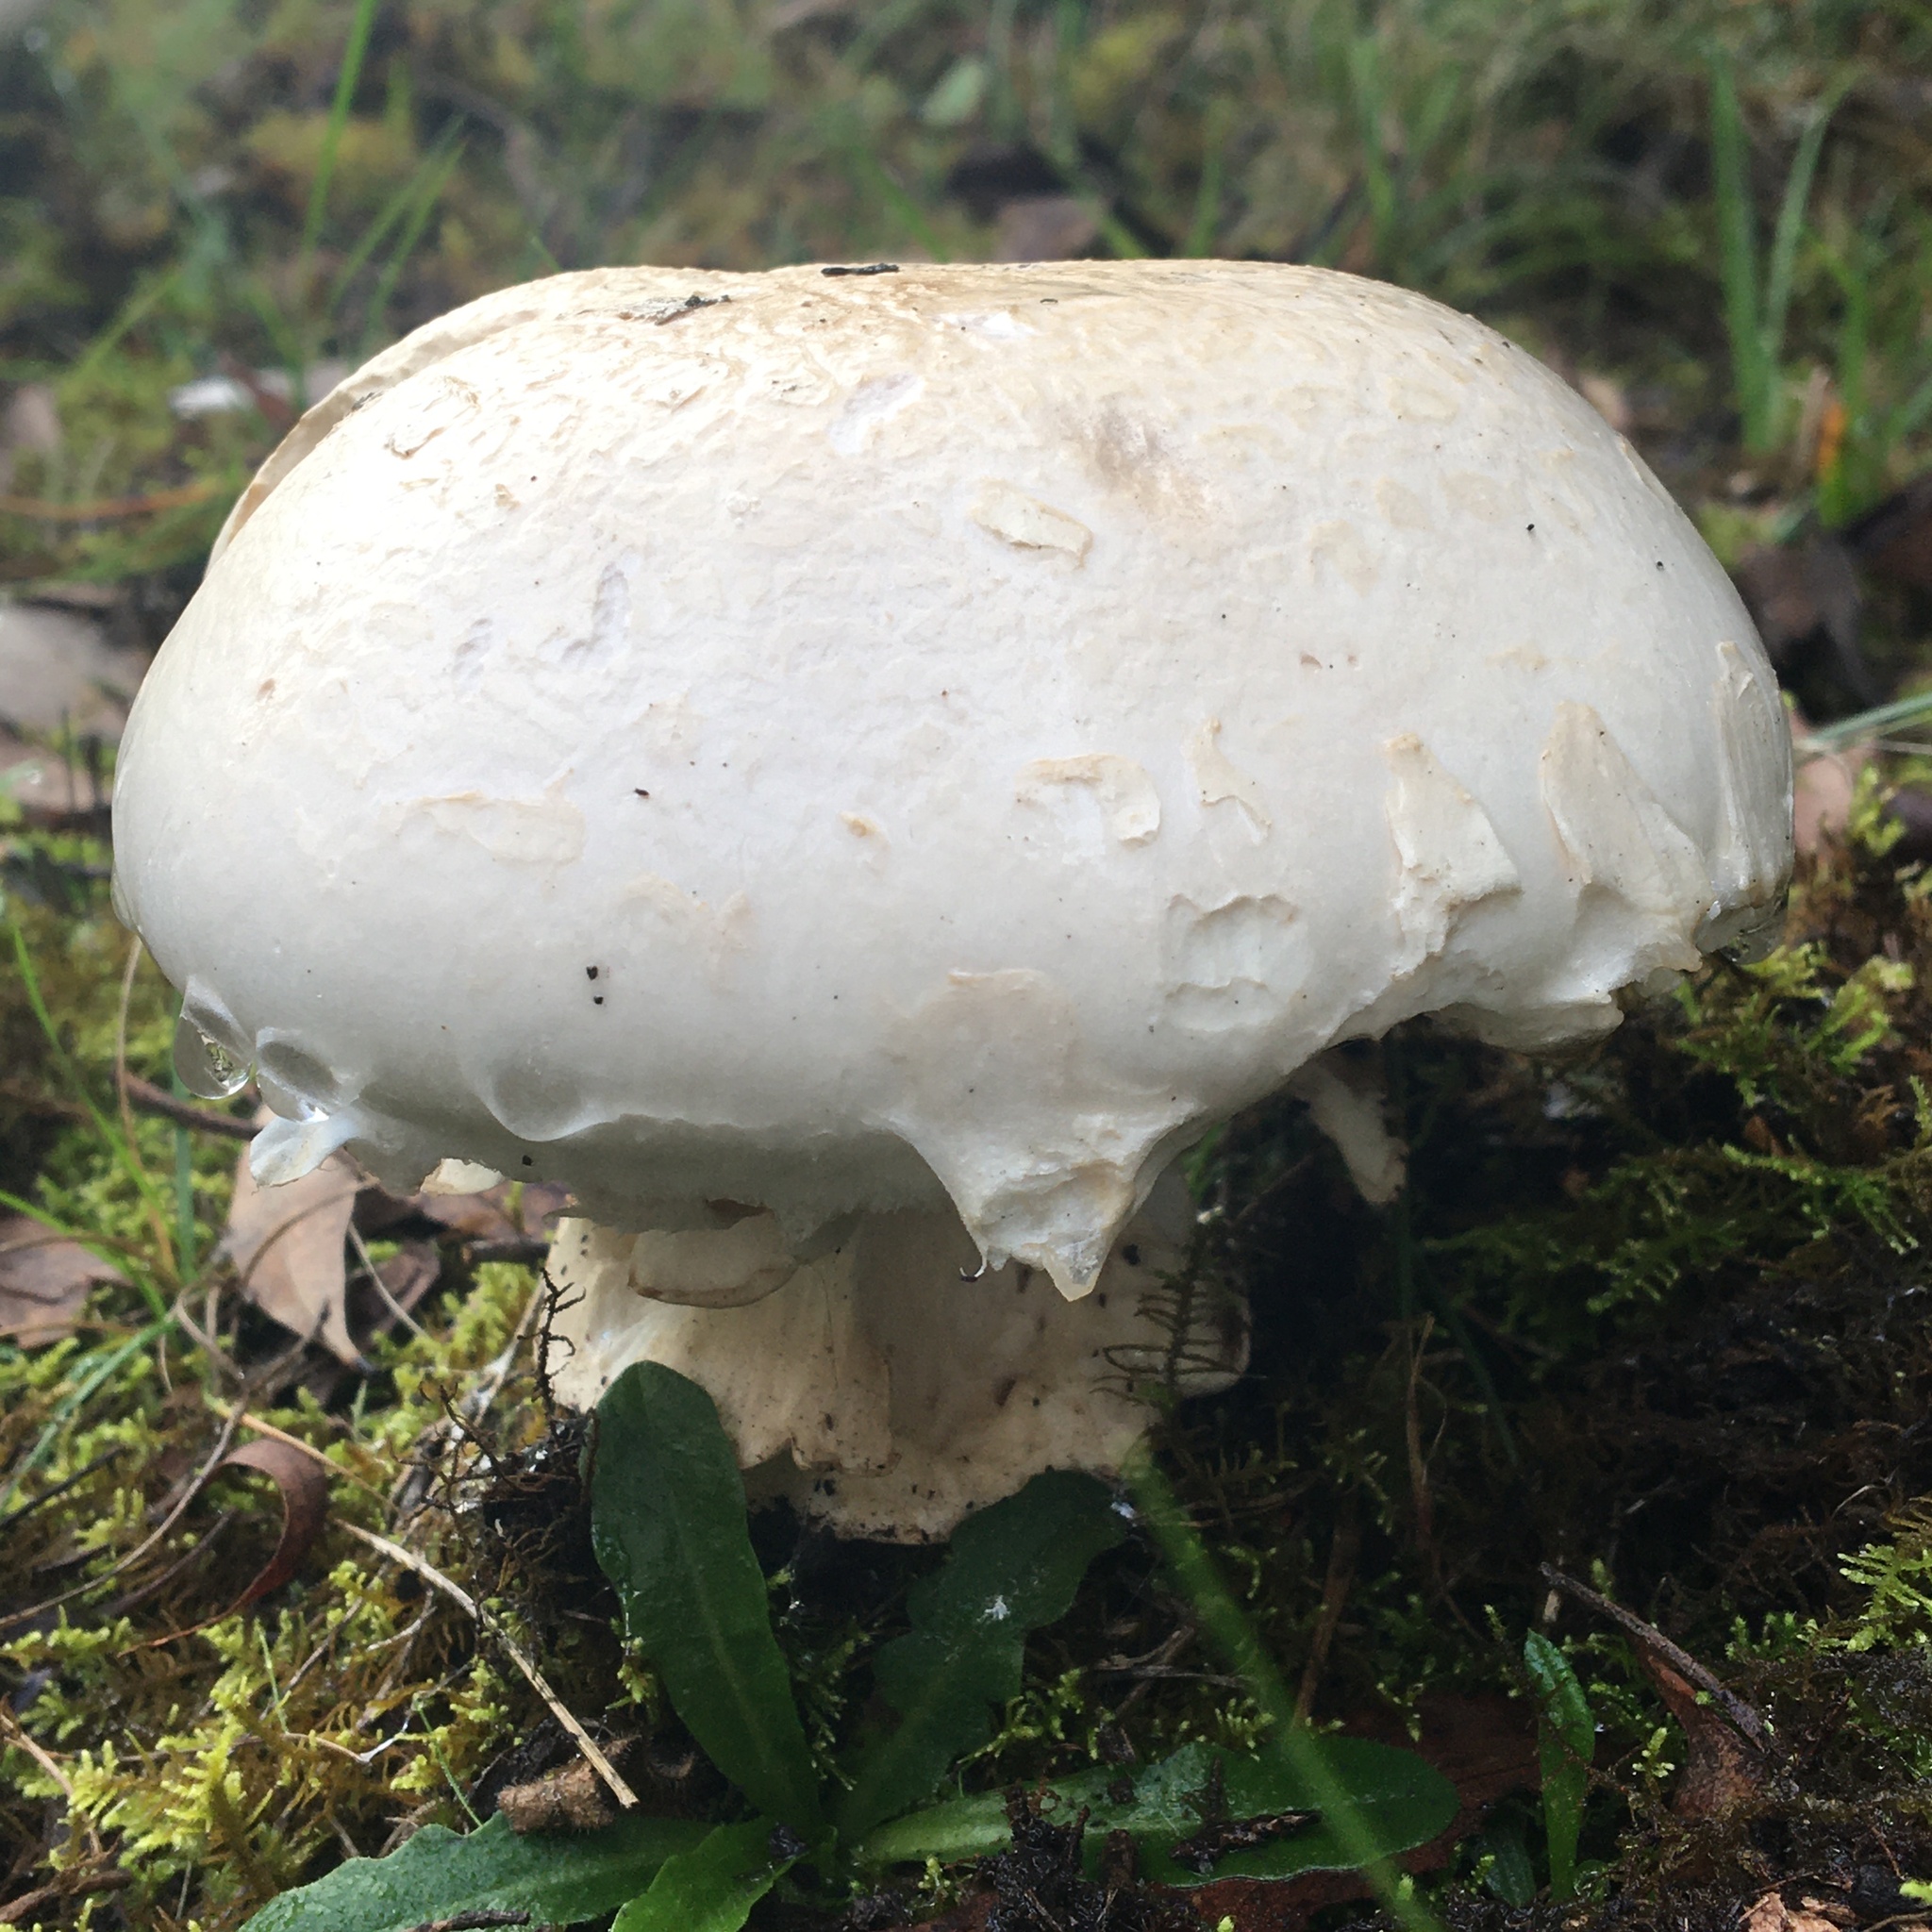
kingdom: Fungi
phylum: Basidiomycota
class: Agaricomycetes
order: Agaricales
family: Cortinariaceae
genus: Austrocortinarius
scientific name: Austrocortinarius australiensis
